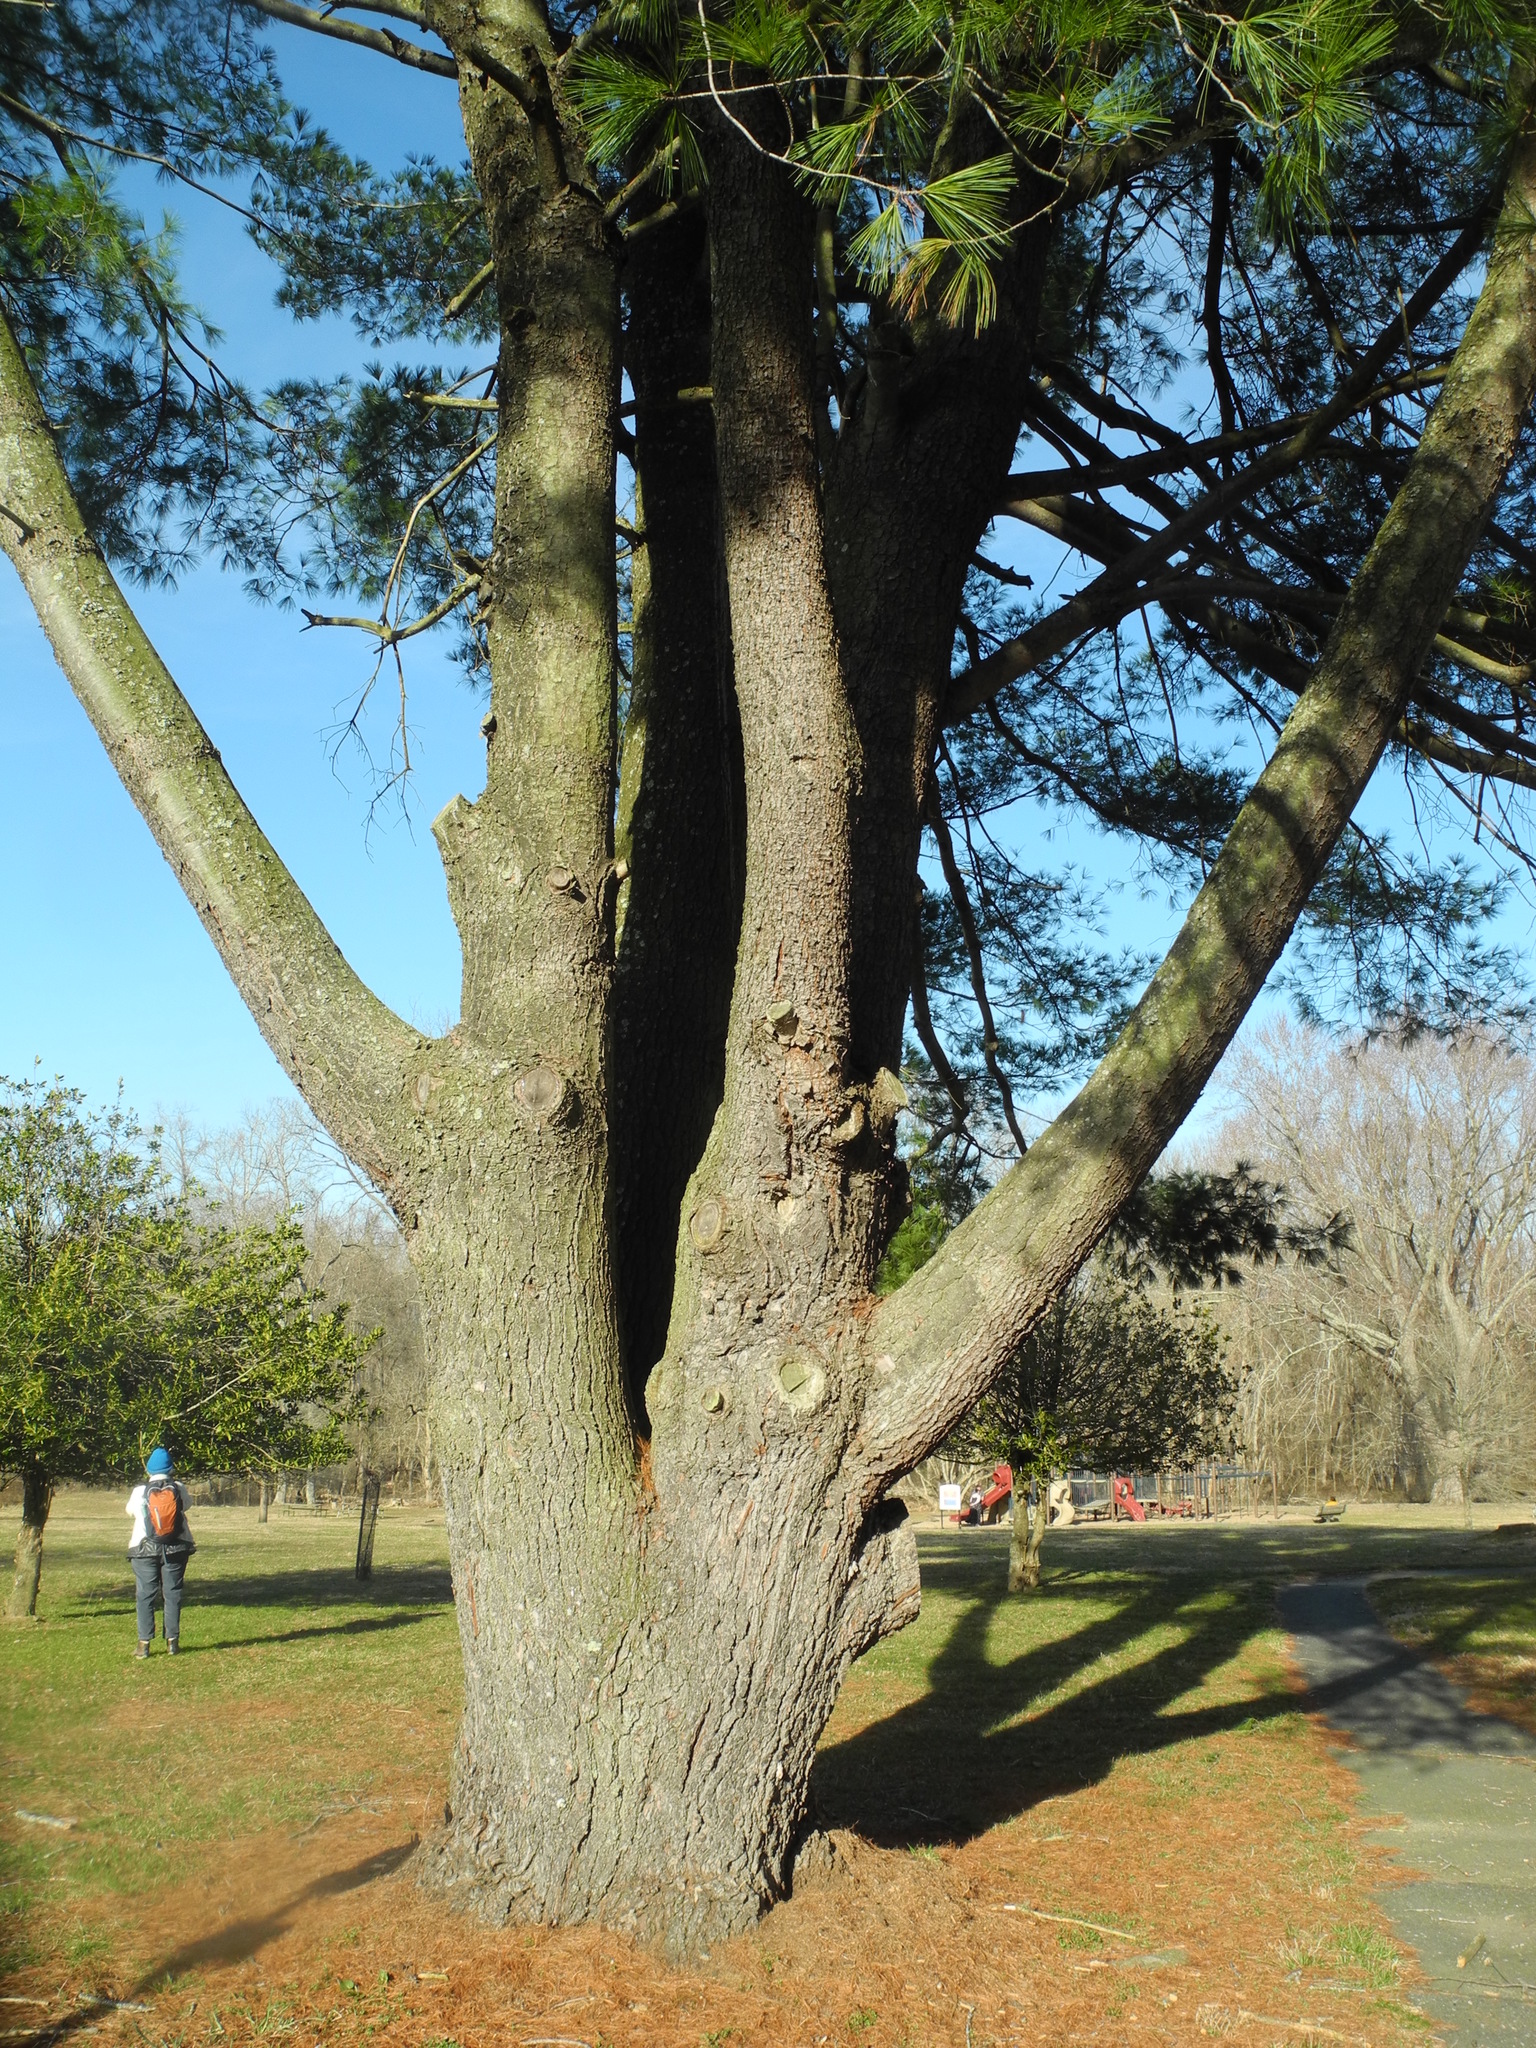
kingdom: Plantae
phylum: Tracheophyta
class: Pinopsida
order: Pinales
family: Pinaceae
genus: Pinus
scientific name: Pinus strobus
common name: Weymouth pine
